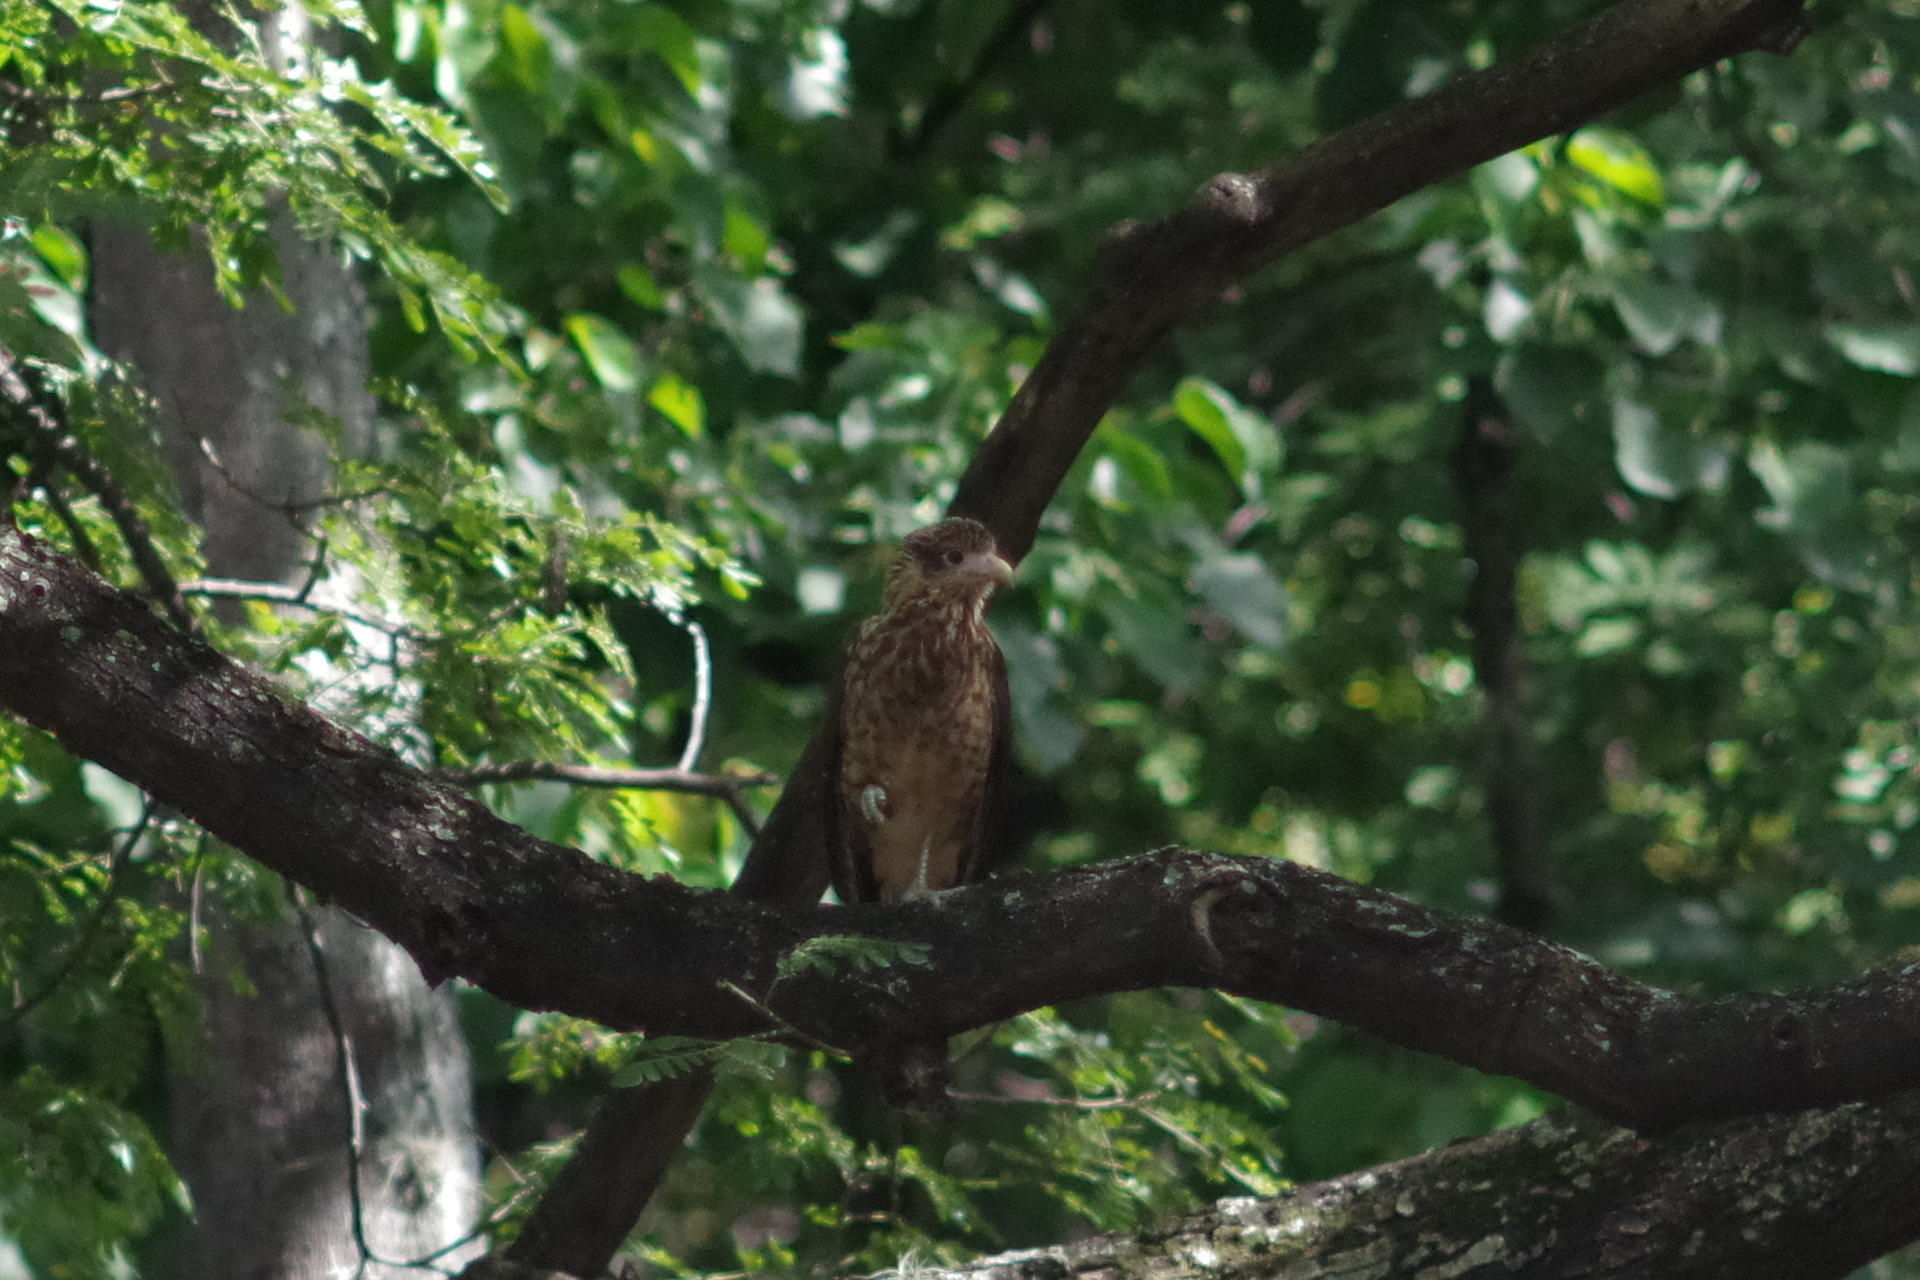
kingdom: Animalia
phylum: Chordata
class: Aves
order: Falconiformes
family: Falconidae
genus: Daptrius
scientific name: Daptrius
